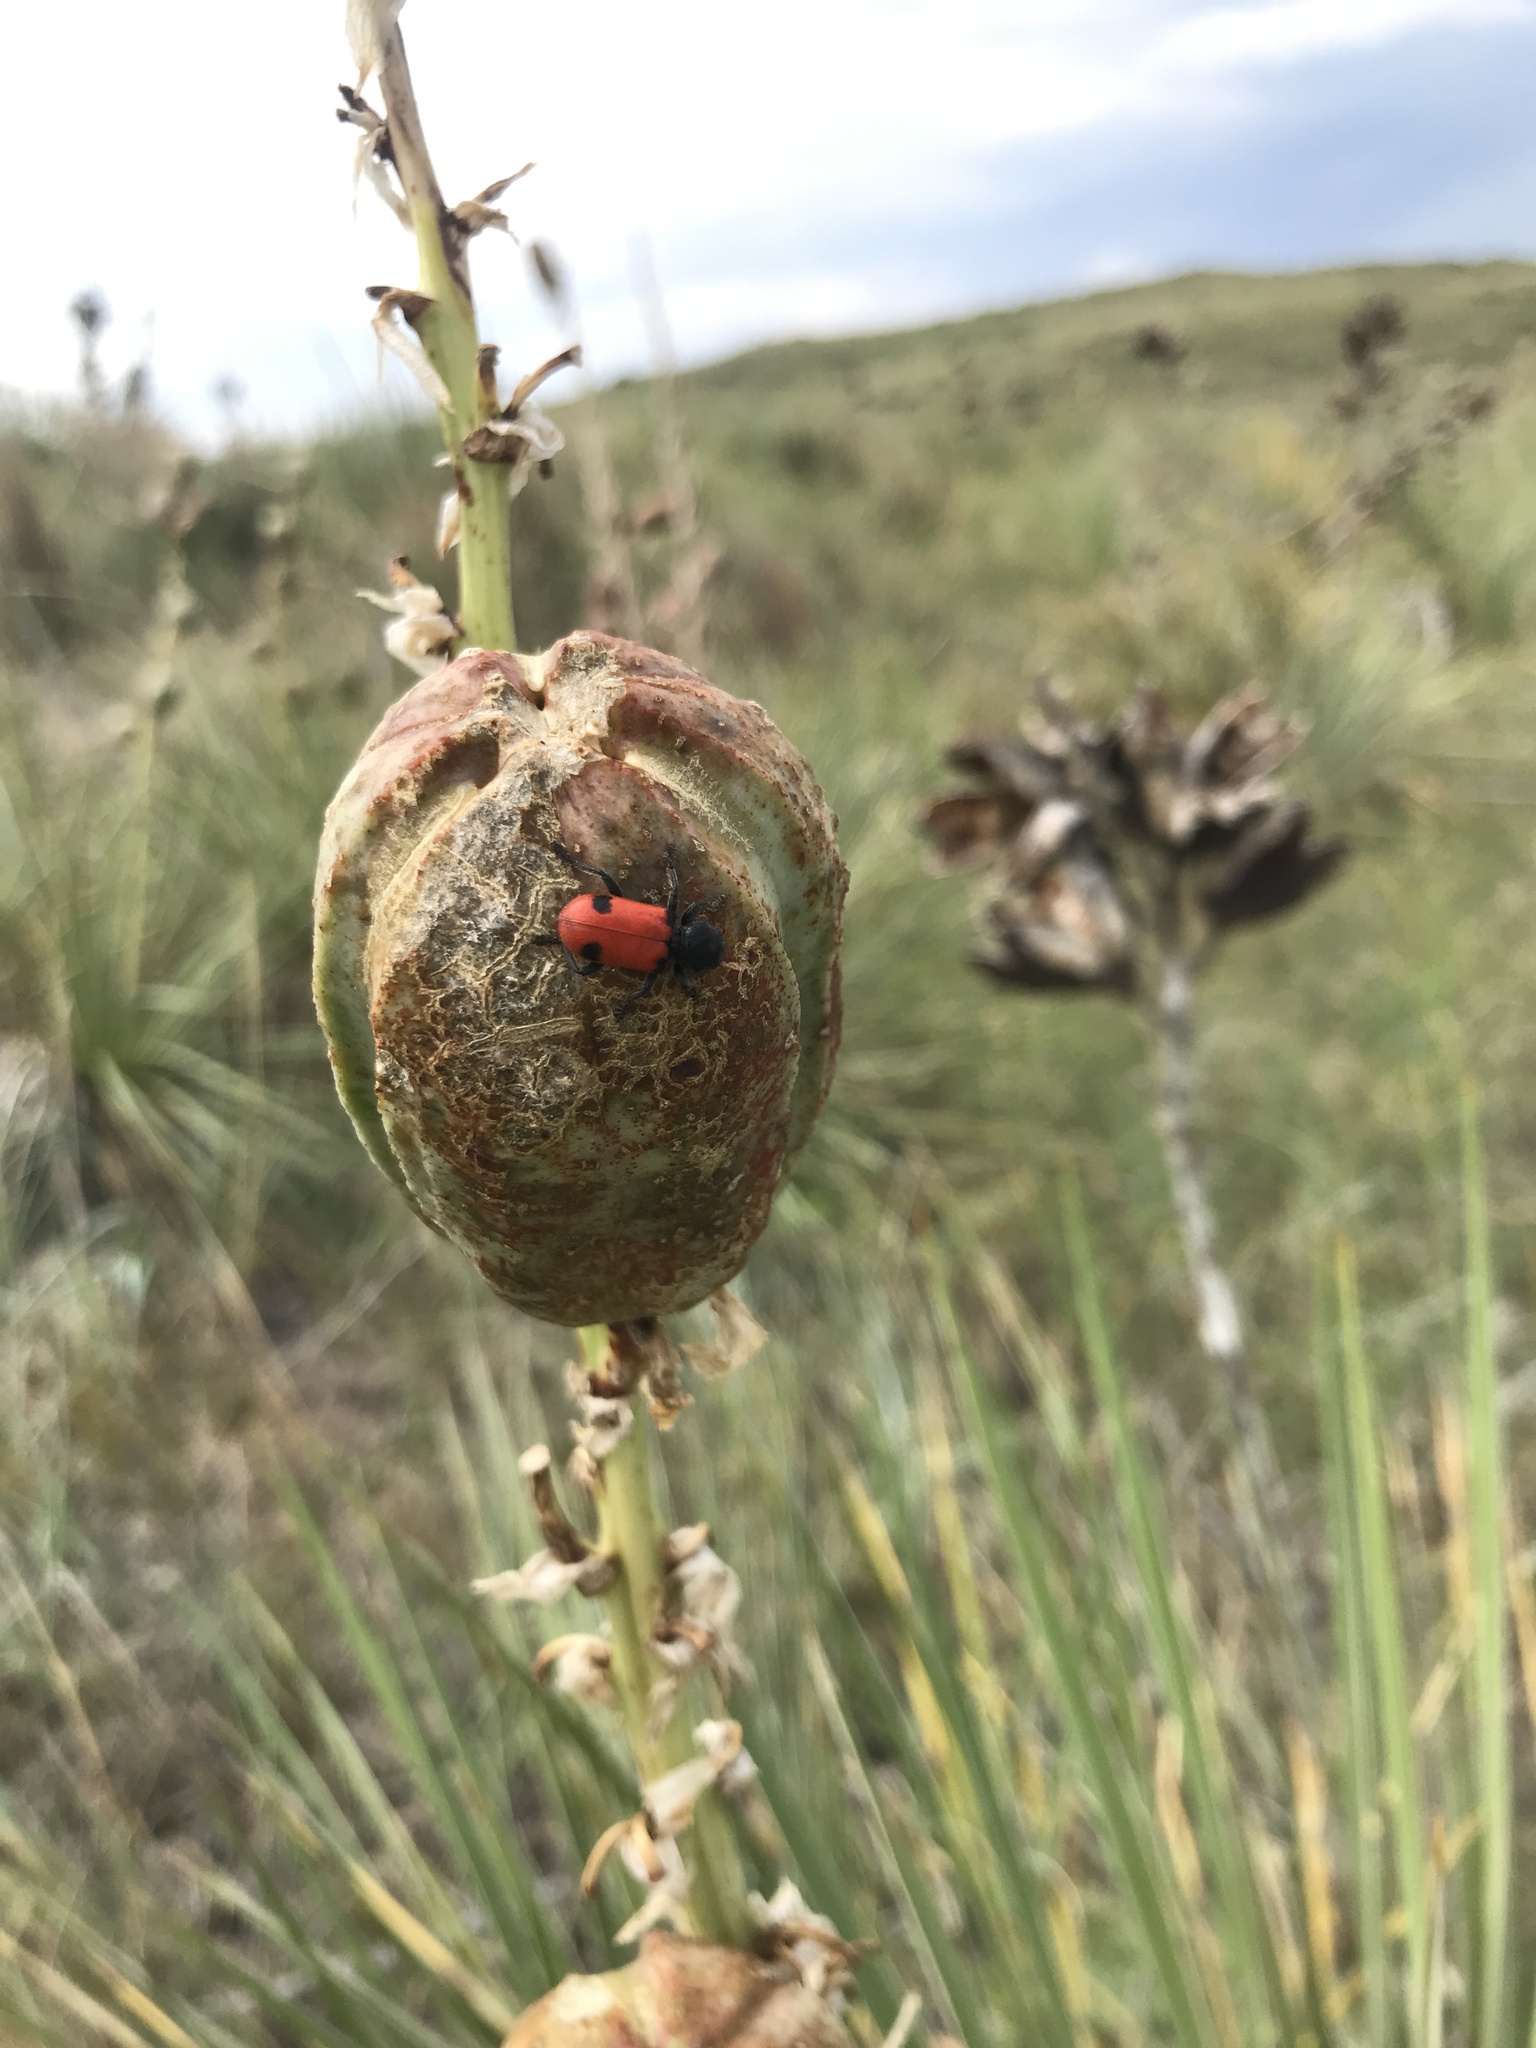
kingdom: Animalia
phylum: Arthropoda
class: Insecta
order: Coleoptera
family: Cleridae
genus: Enoclerus
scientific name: Enoclerus
